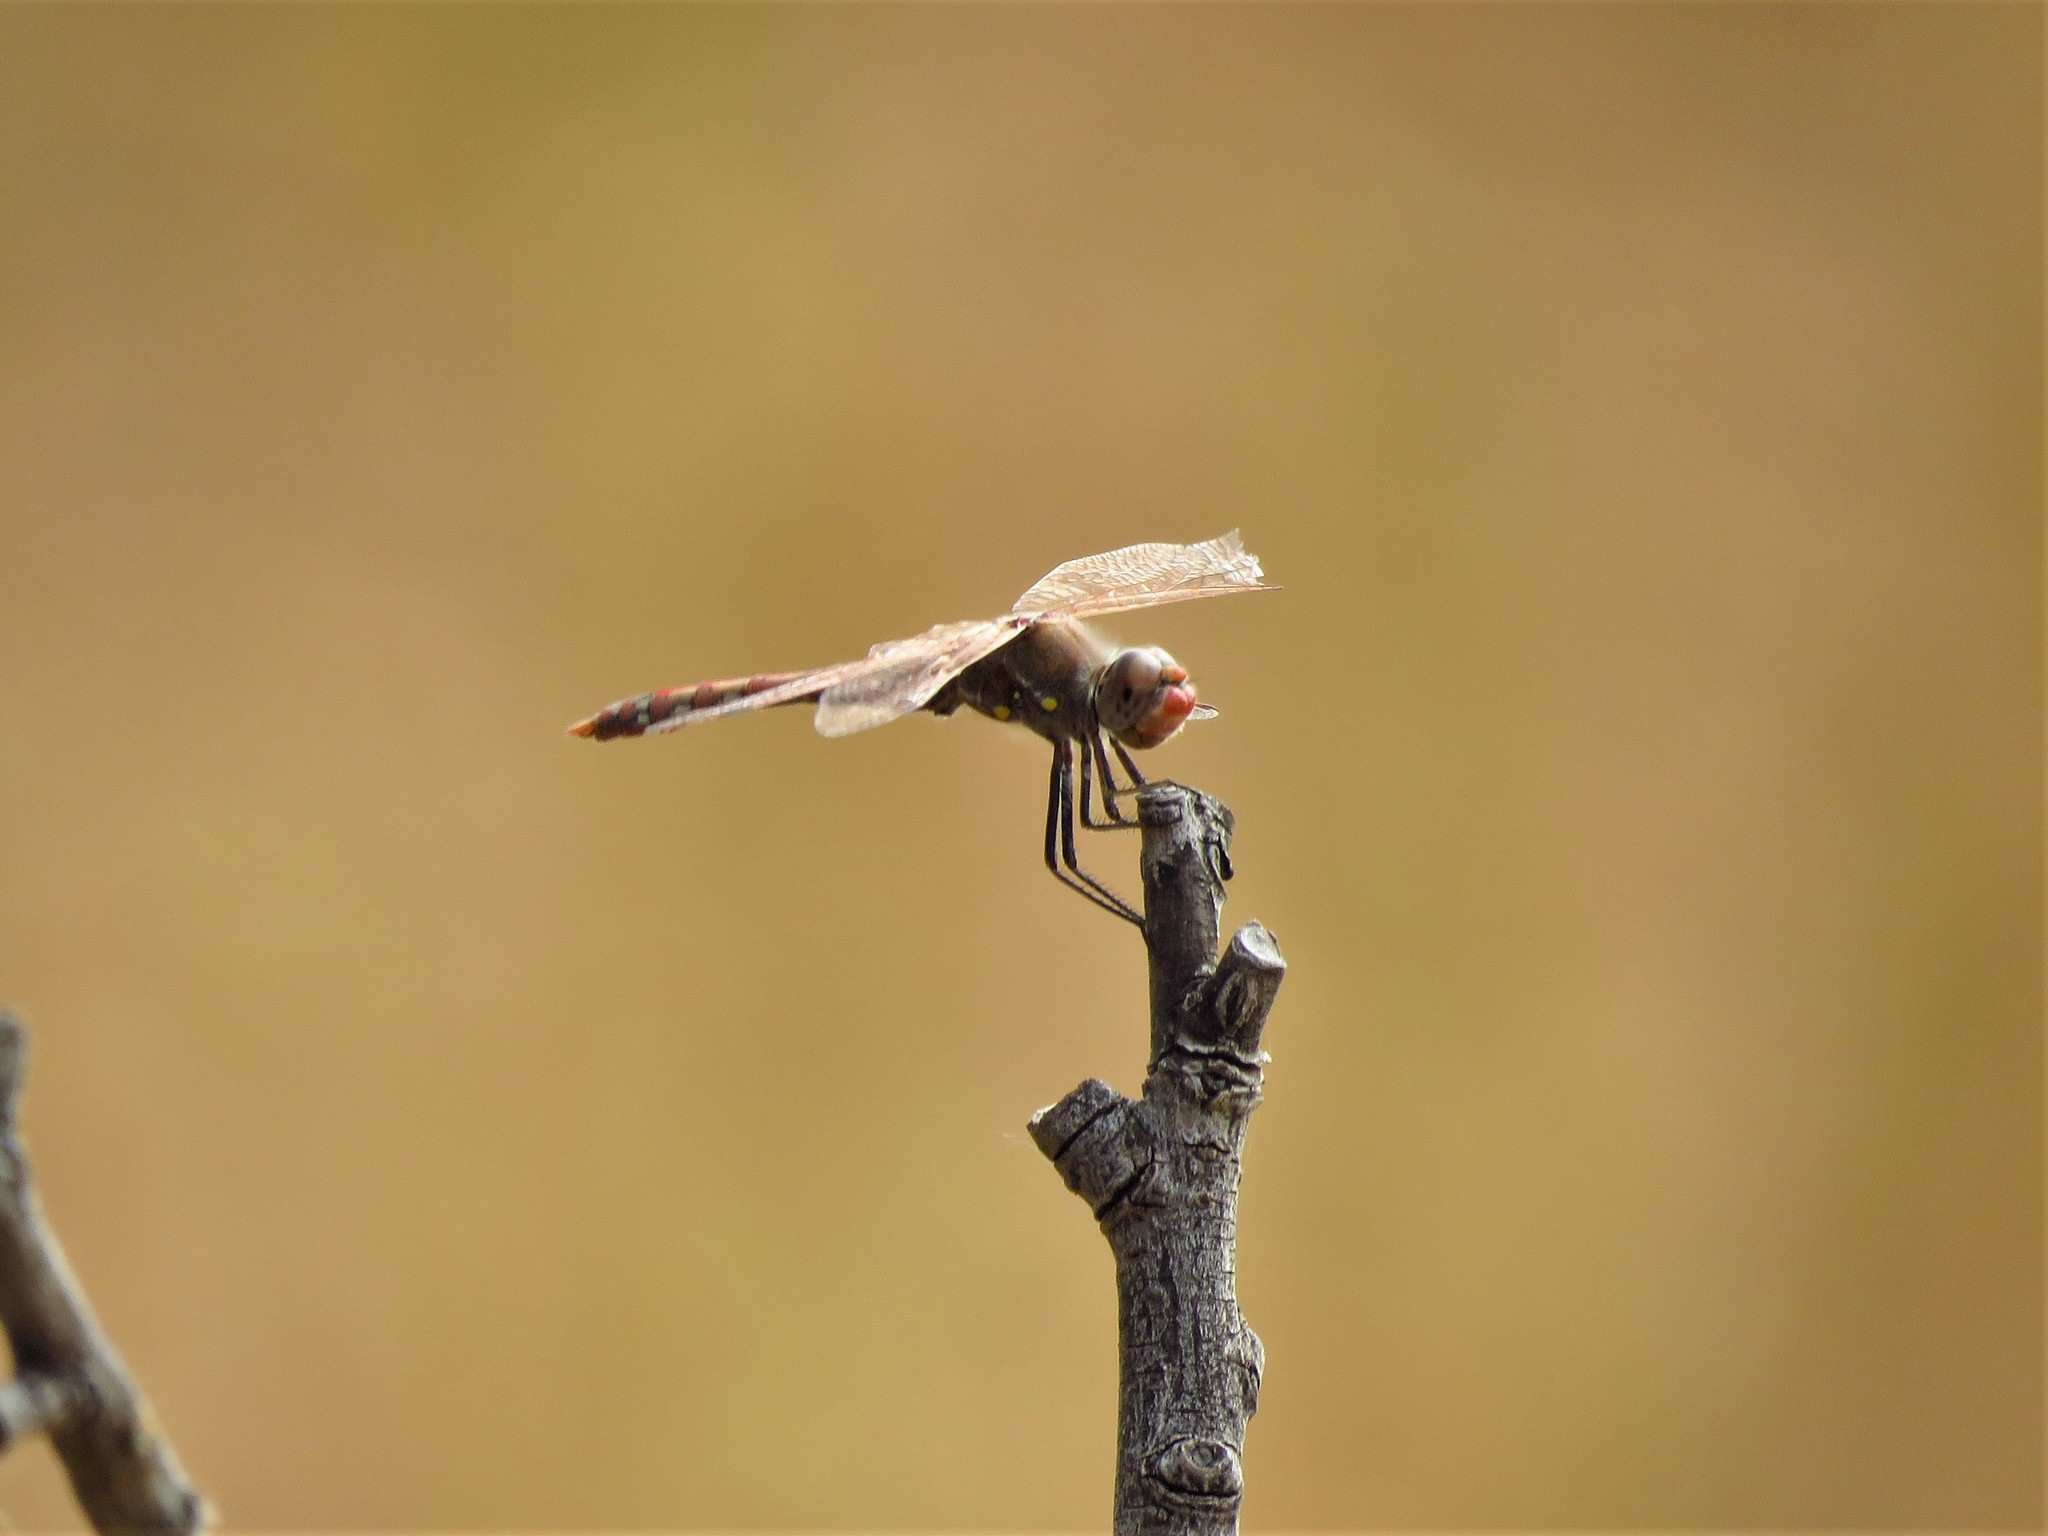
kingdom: Animalia
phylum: Arthropoda
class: Insecta
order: Odonata
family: Libellulidae
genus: Sympetrum
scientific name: Sympetrum corruptum
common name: Variegated meadowhawk
